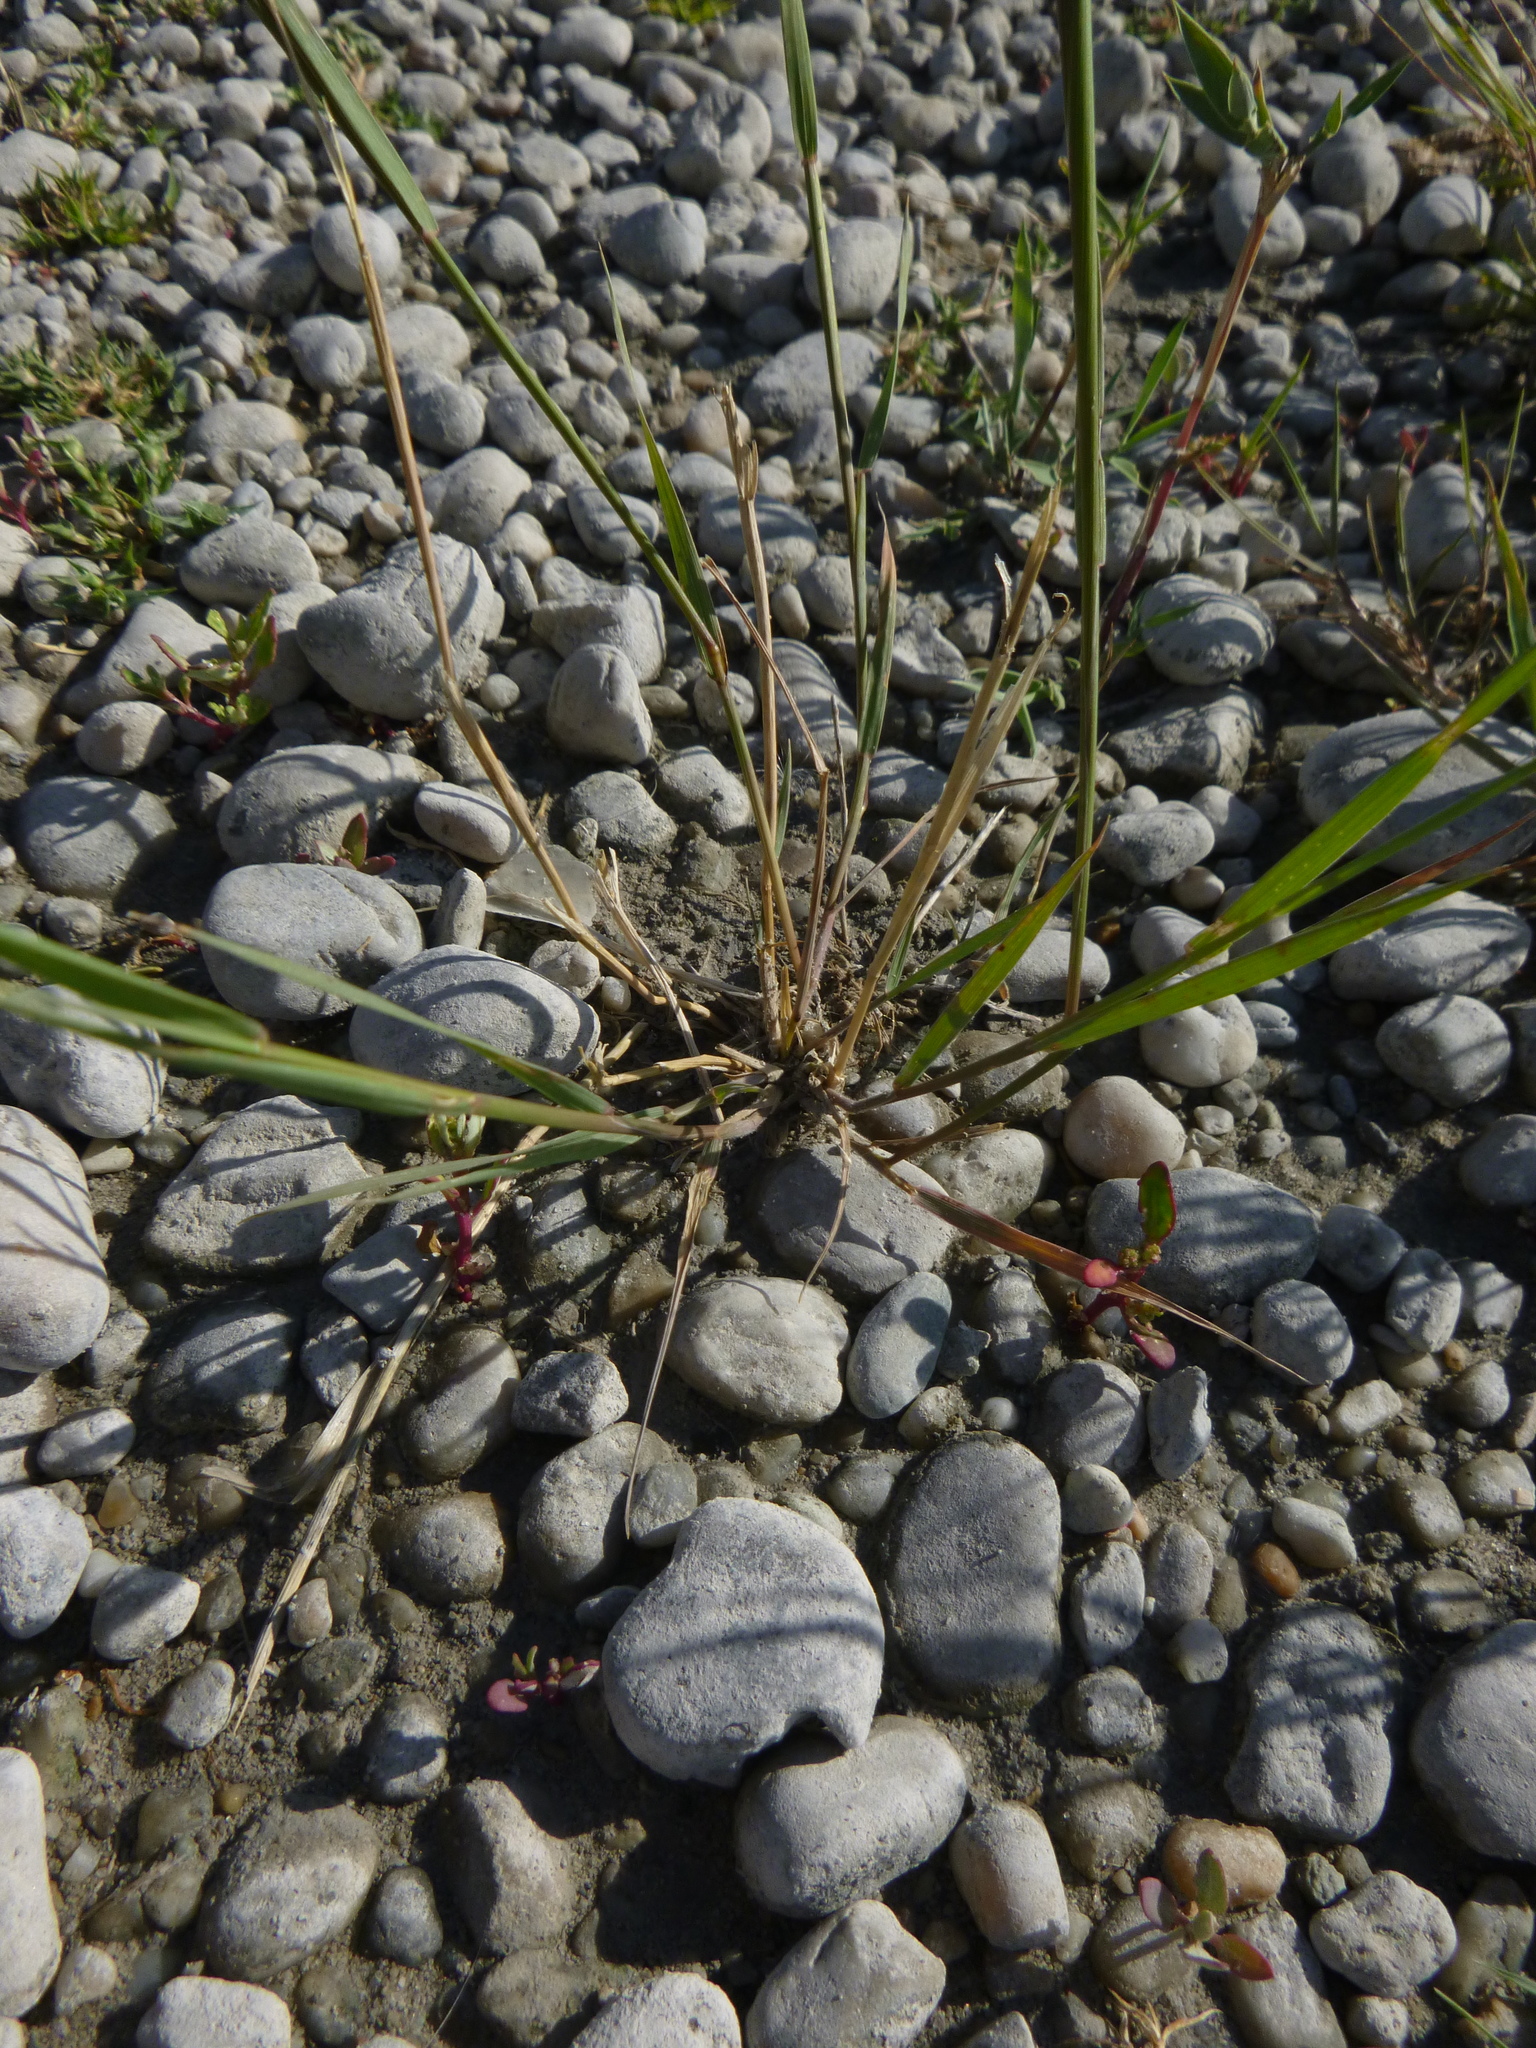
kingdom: Plantae
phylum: Tracheophyta
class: Liliopsida
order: Poales
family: Poaceae
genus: Hordeum
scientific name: Hordeum jubatum
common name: Foxtail barley
